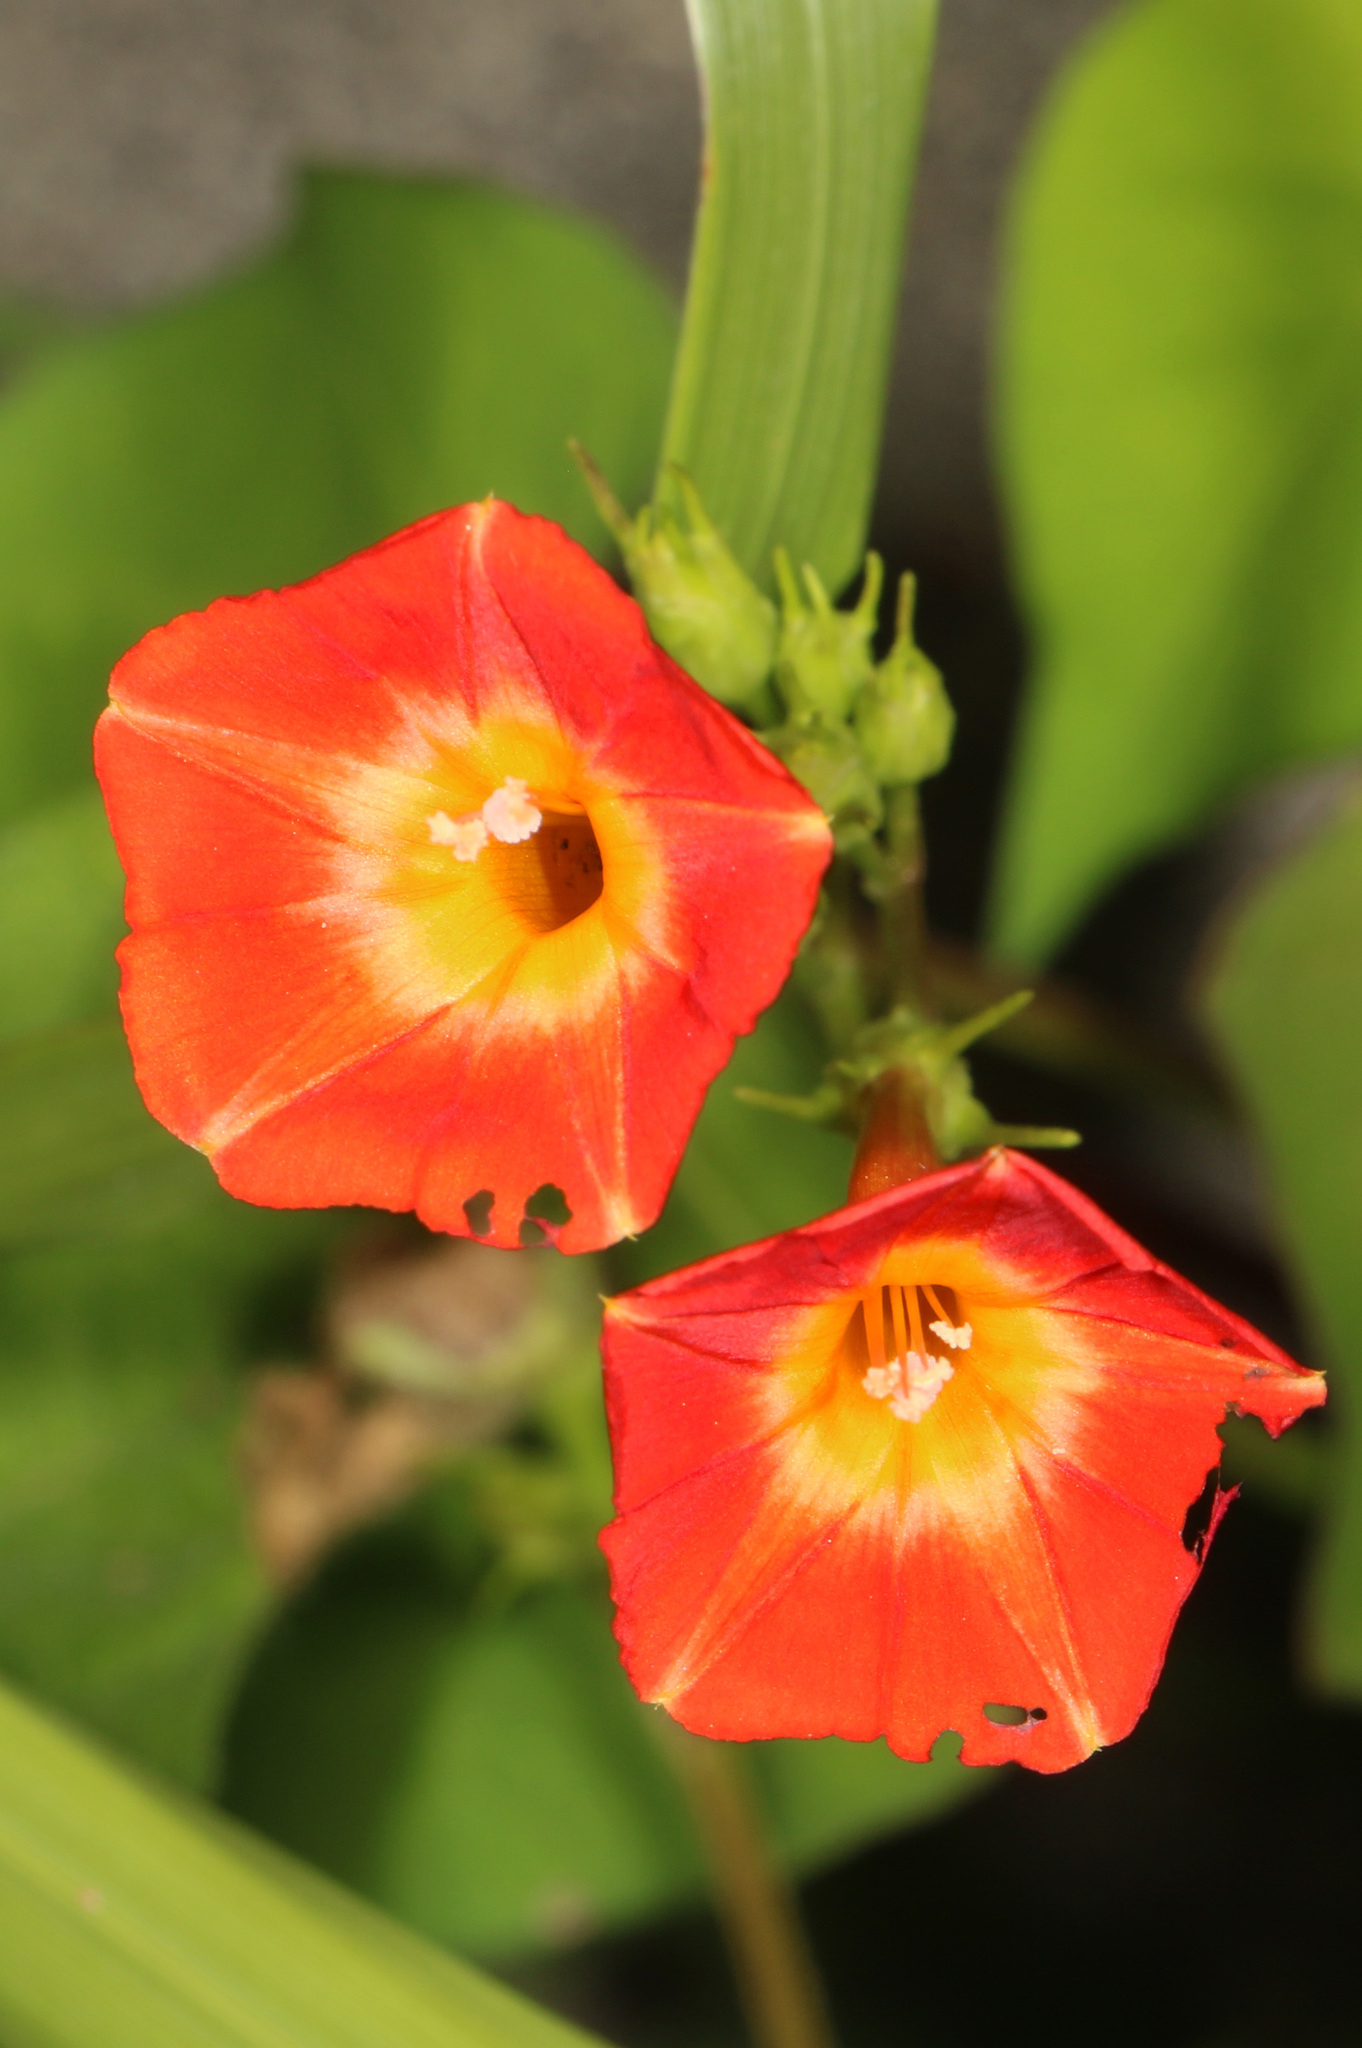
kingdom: Plantae
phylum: Tracheophyta
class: Magnoliopsida
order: Solanales
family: Convolvulaceae
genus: Ipomoea
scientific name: Ipomoea coccinea
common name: Red morning-glory
